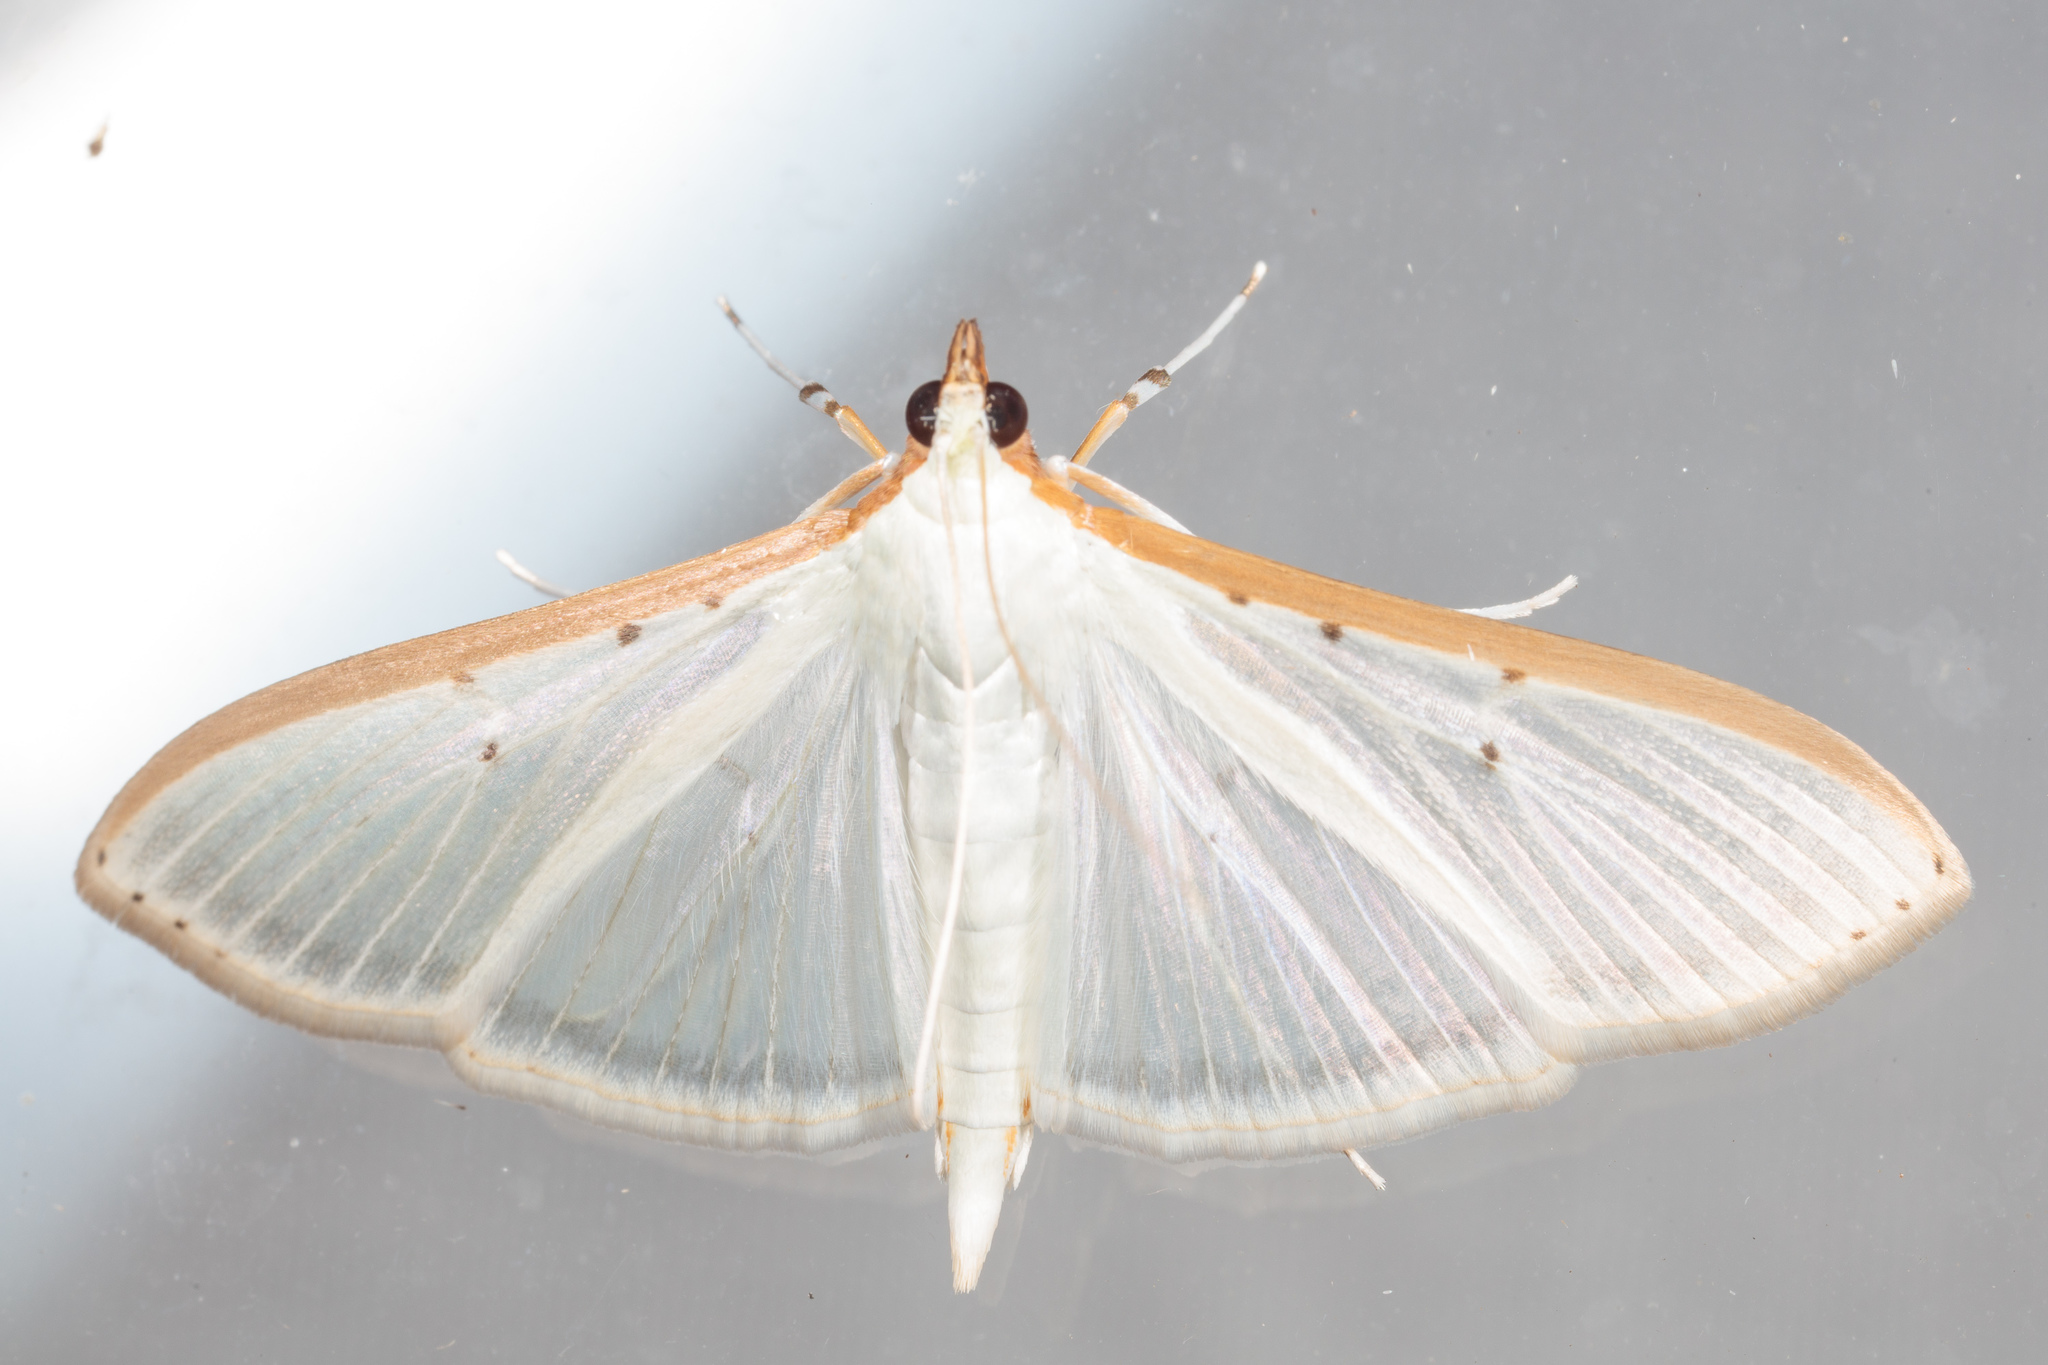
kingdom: Animalia
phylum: Arthropoda
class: Insecta
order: Lepidoptera
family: Crambidae
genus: Palpita
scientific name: Palpita quadristigmalis
